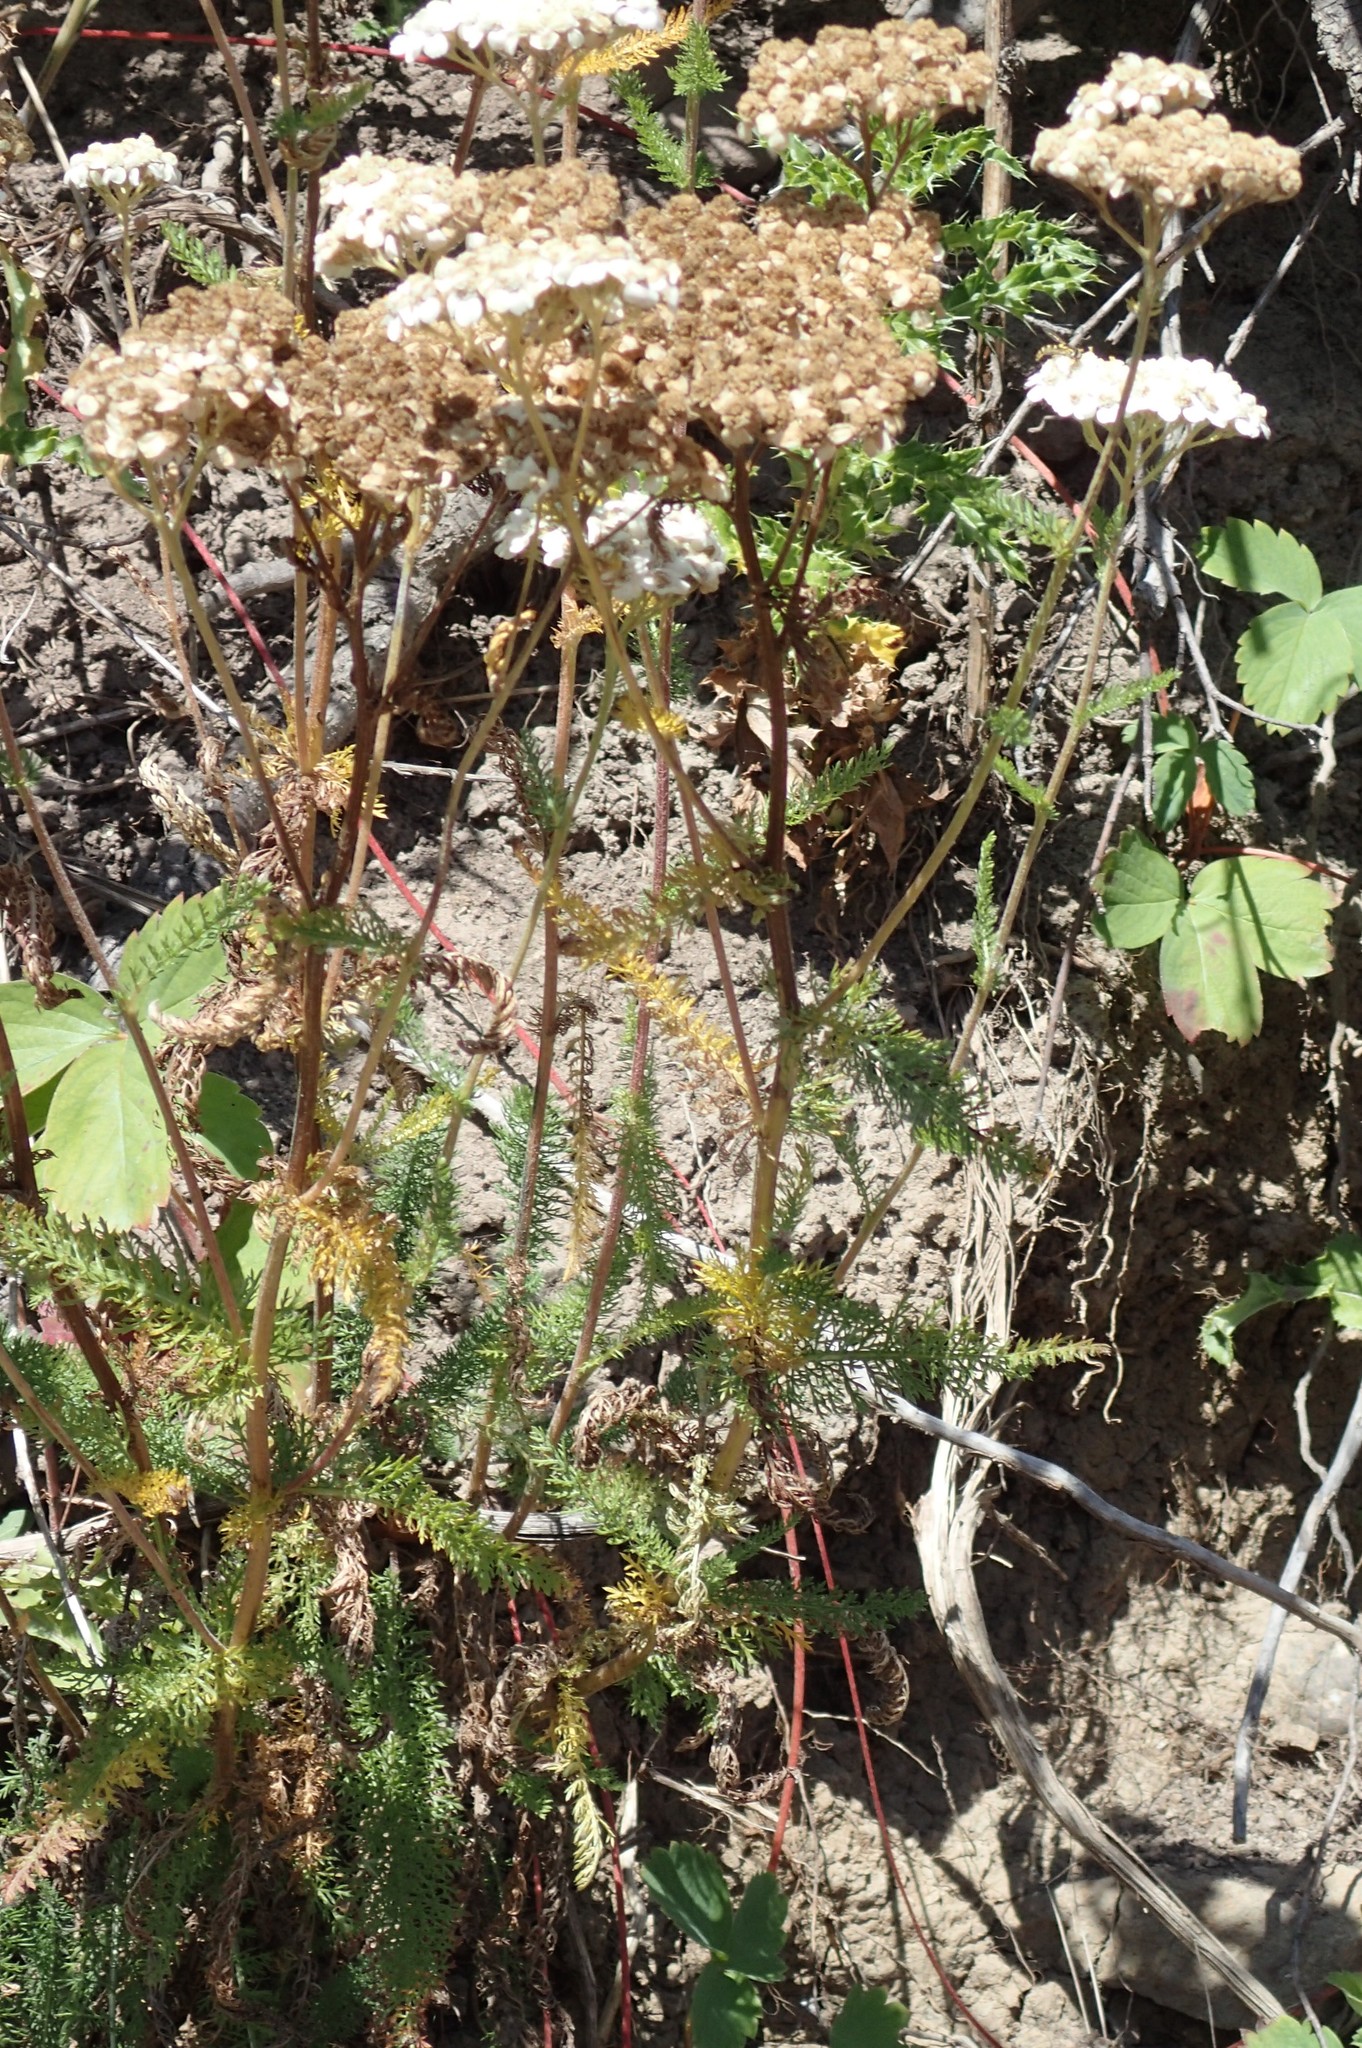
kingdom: Plantae
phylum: Tracheophyta
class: Magnoliopsida
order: Asterales
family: Asteraceae
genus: Achillea
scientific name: Achillea millefolium
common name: Yarrow
